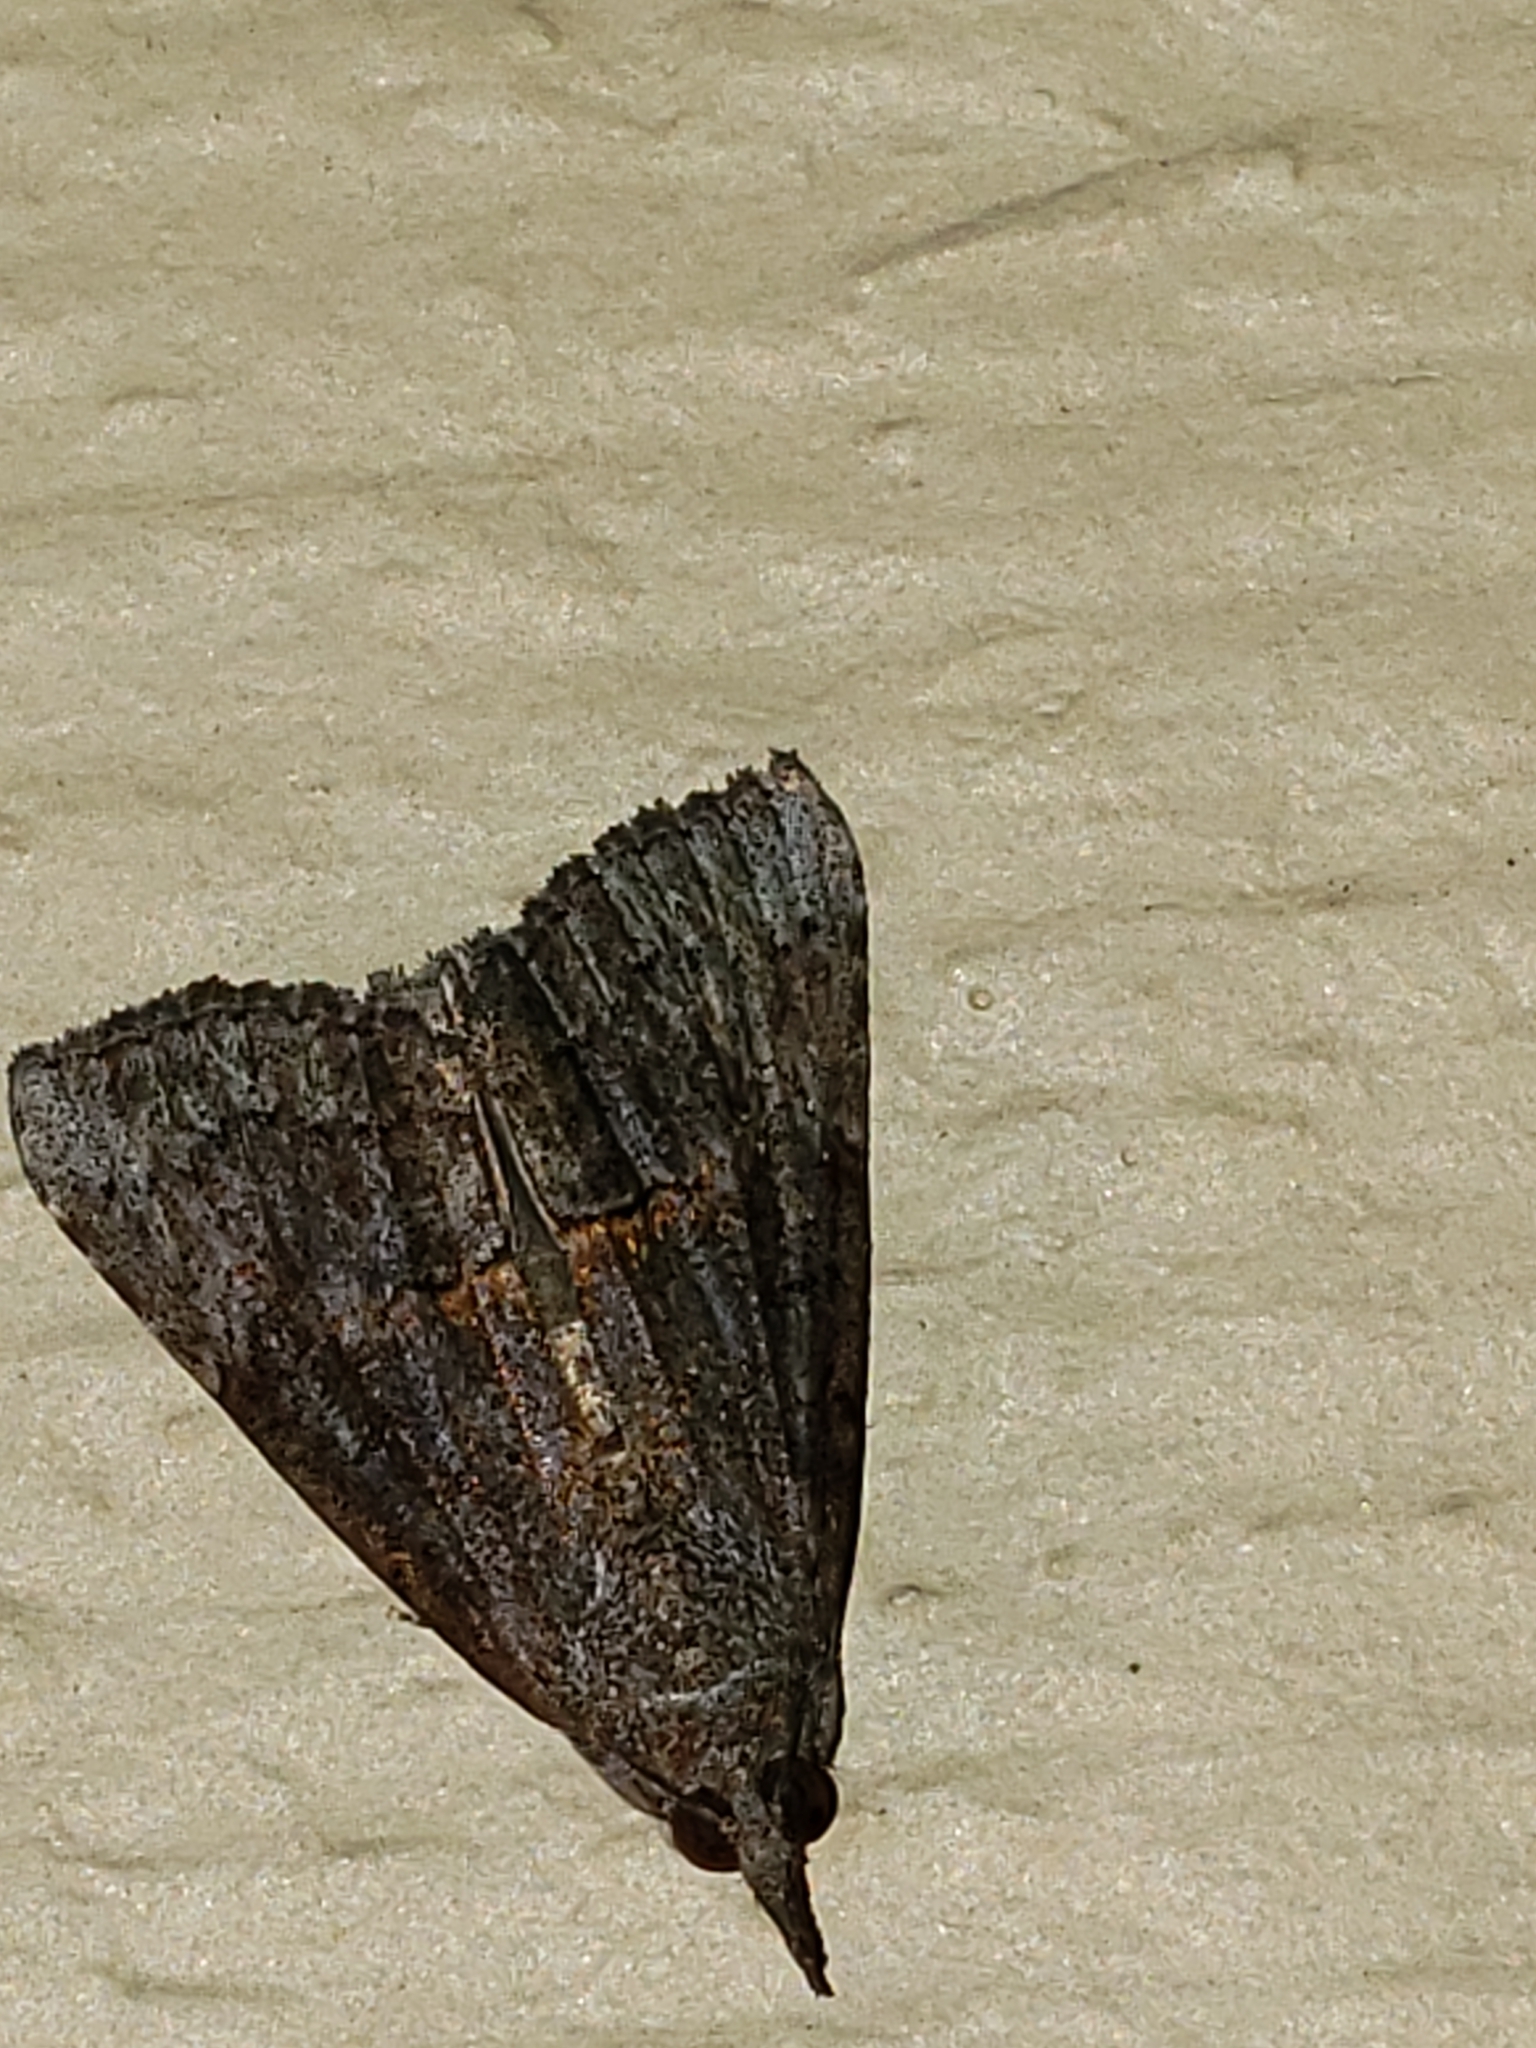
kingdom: Animalia
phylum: Arthropoda
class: Insecta
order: Lepidoptera
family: Erebidae
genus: Hypena
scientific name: Hypena scabra
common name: Green cloverworm
